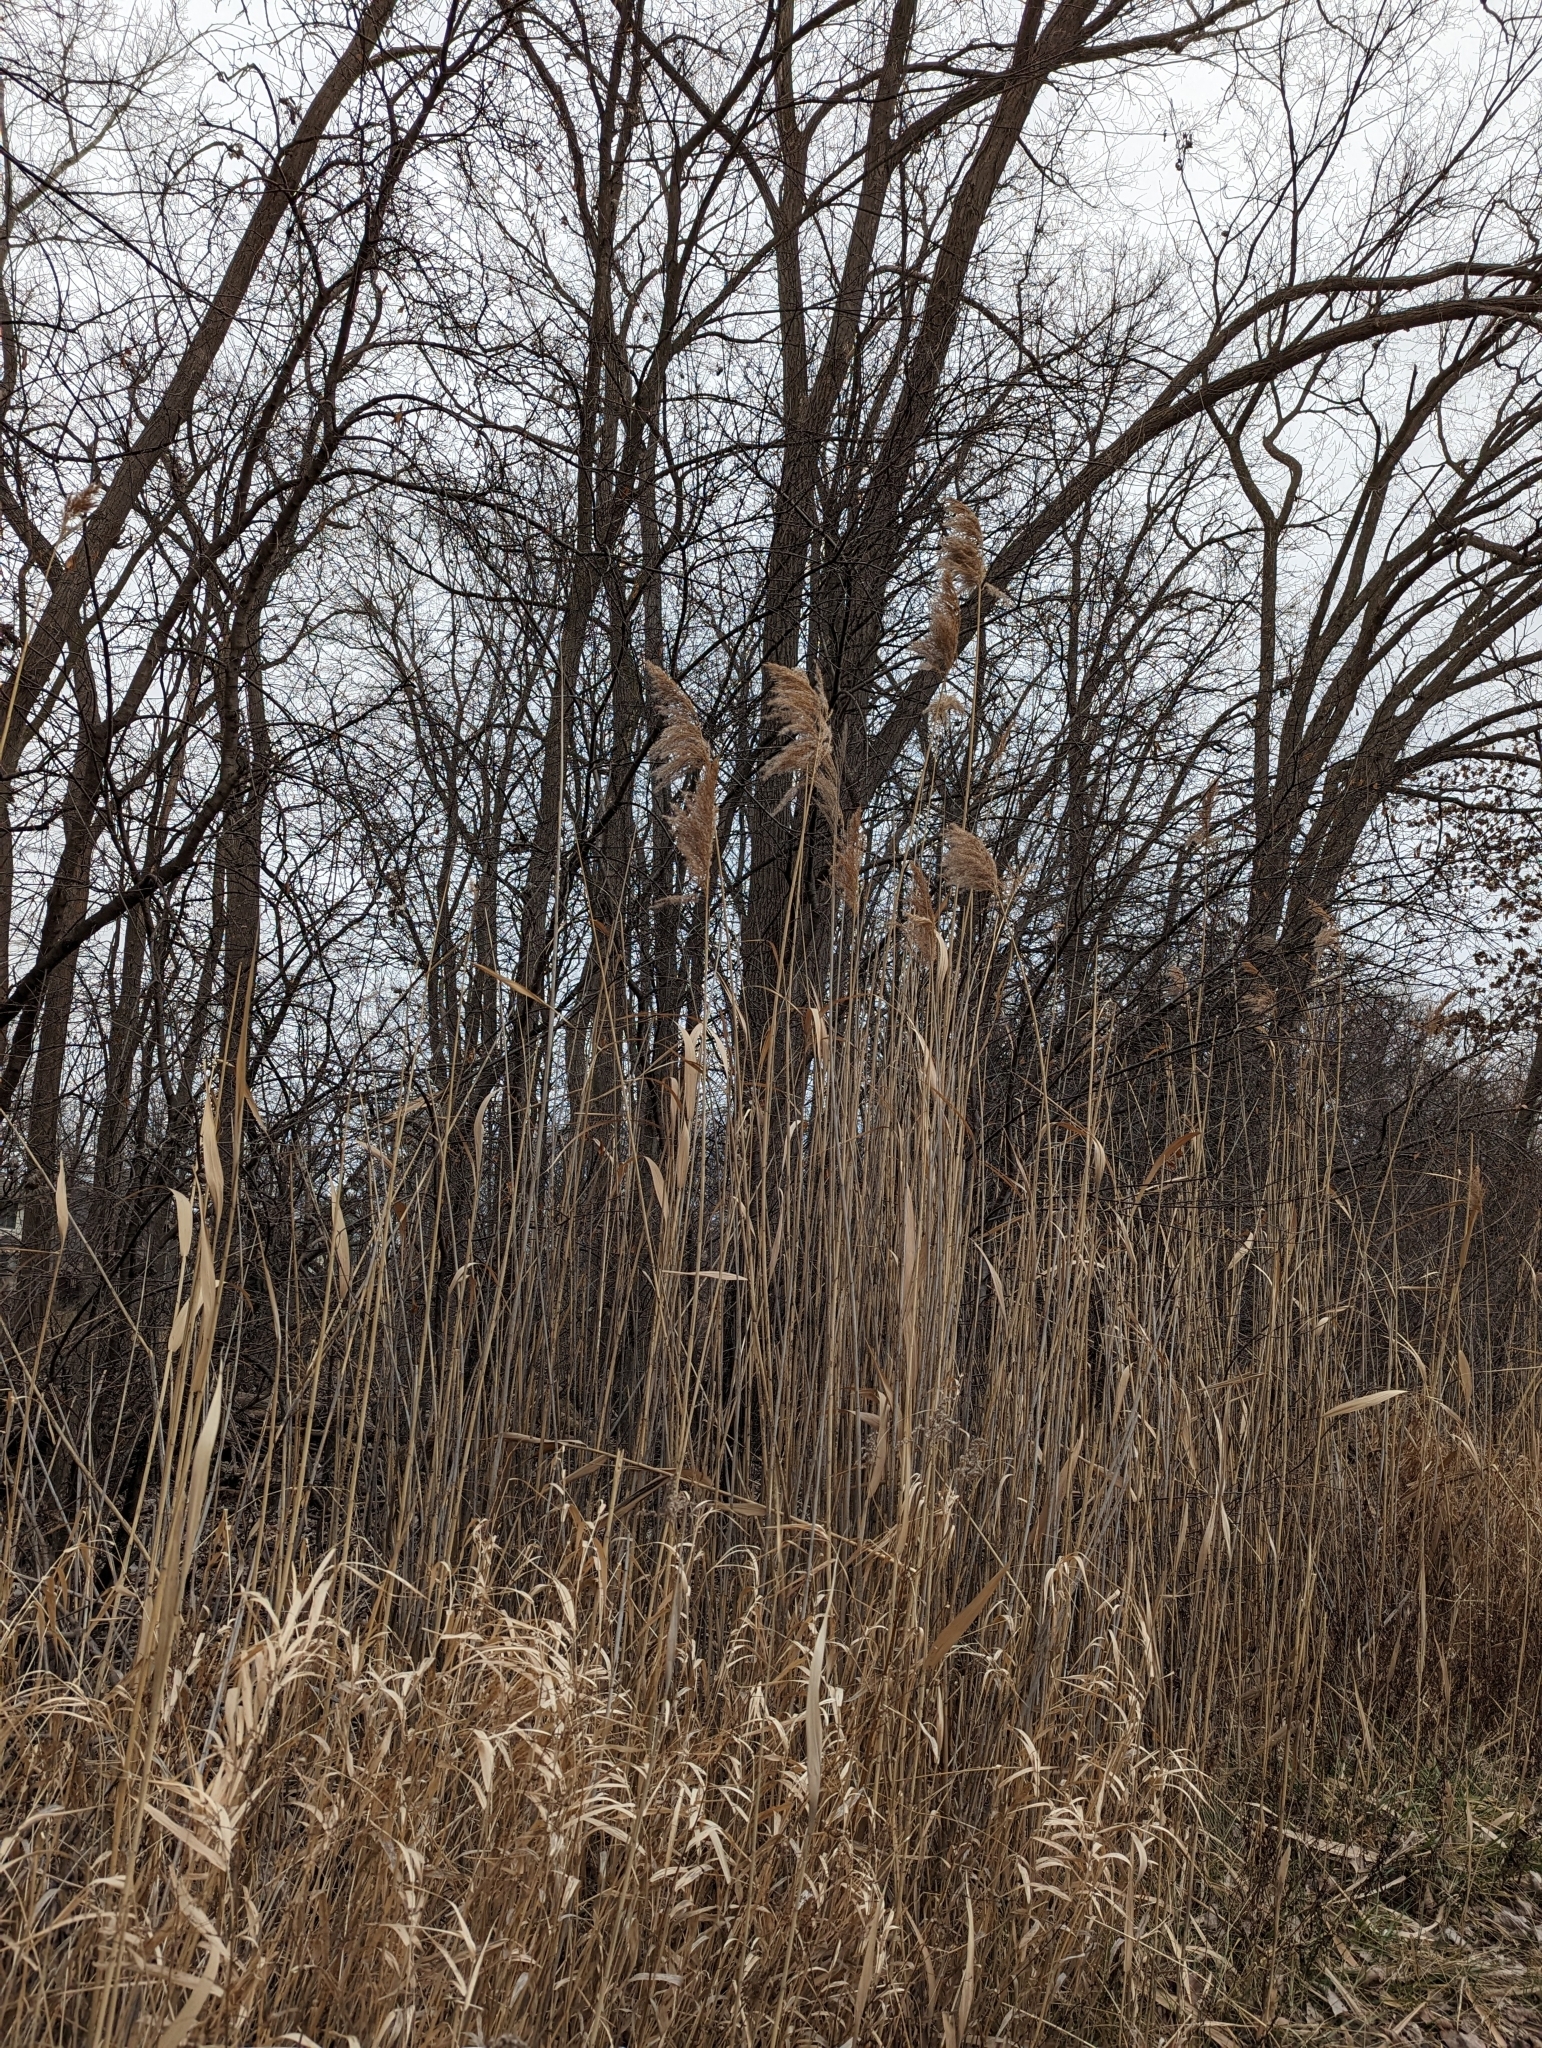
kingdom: Plantae
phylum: Tracheophyta
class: Liliopsida
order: Poales
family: Poaceae
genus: Phragmites
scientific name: Phragmites australis
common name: Common reed
